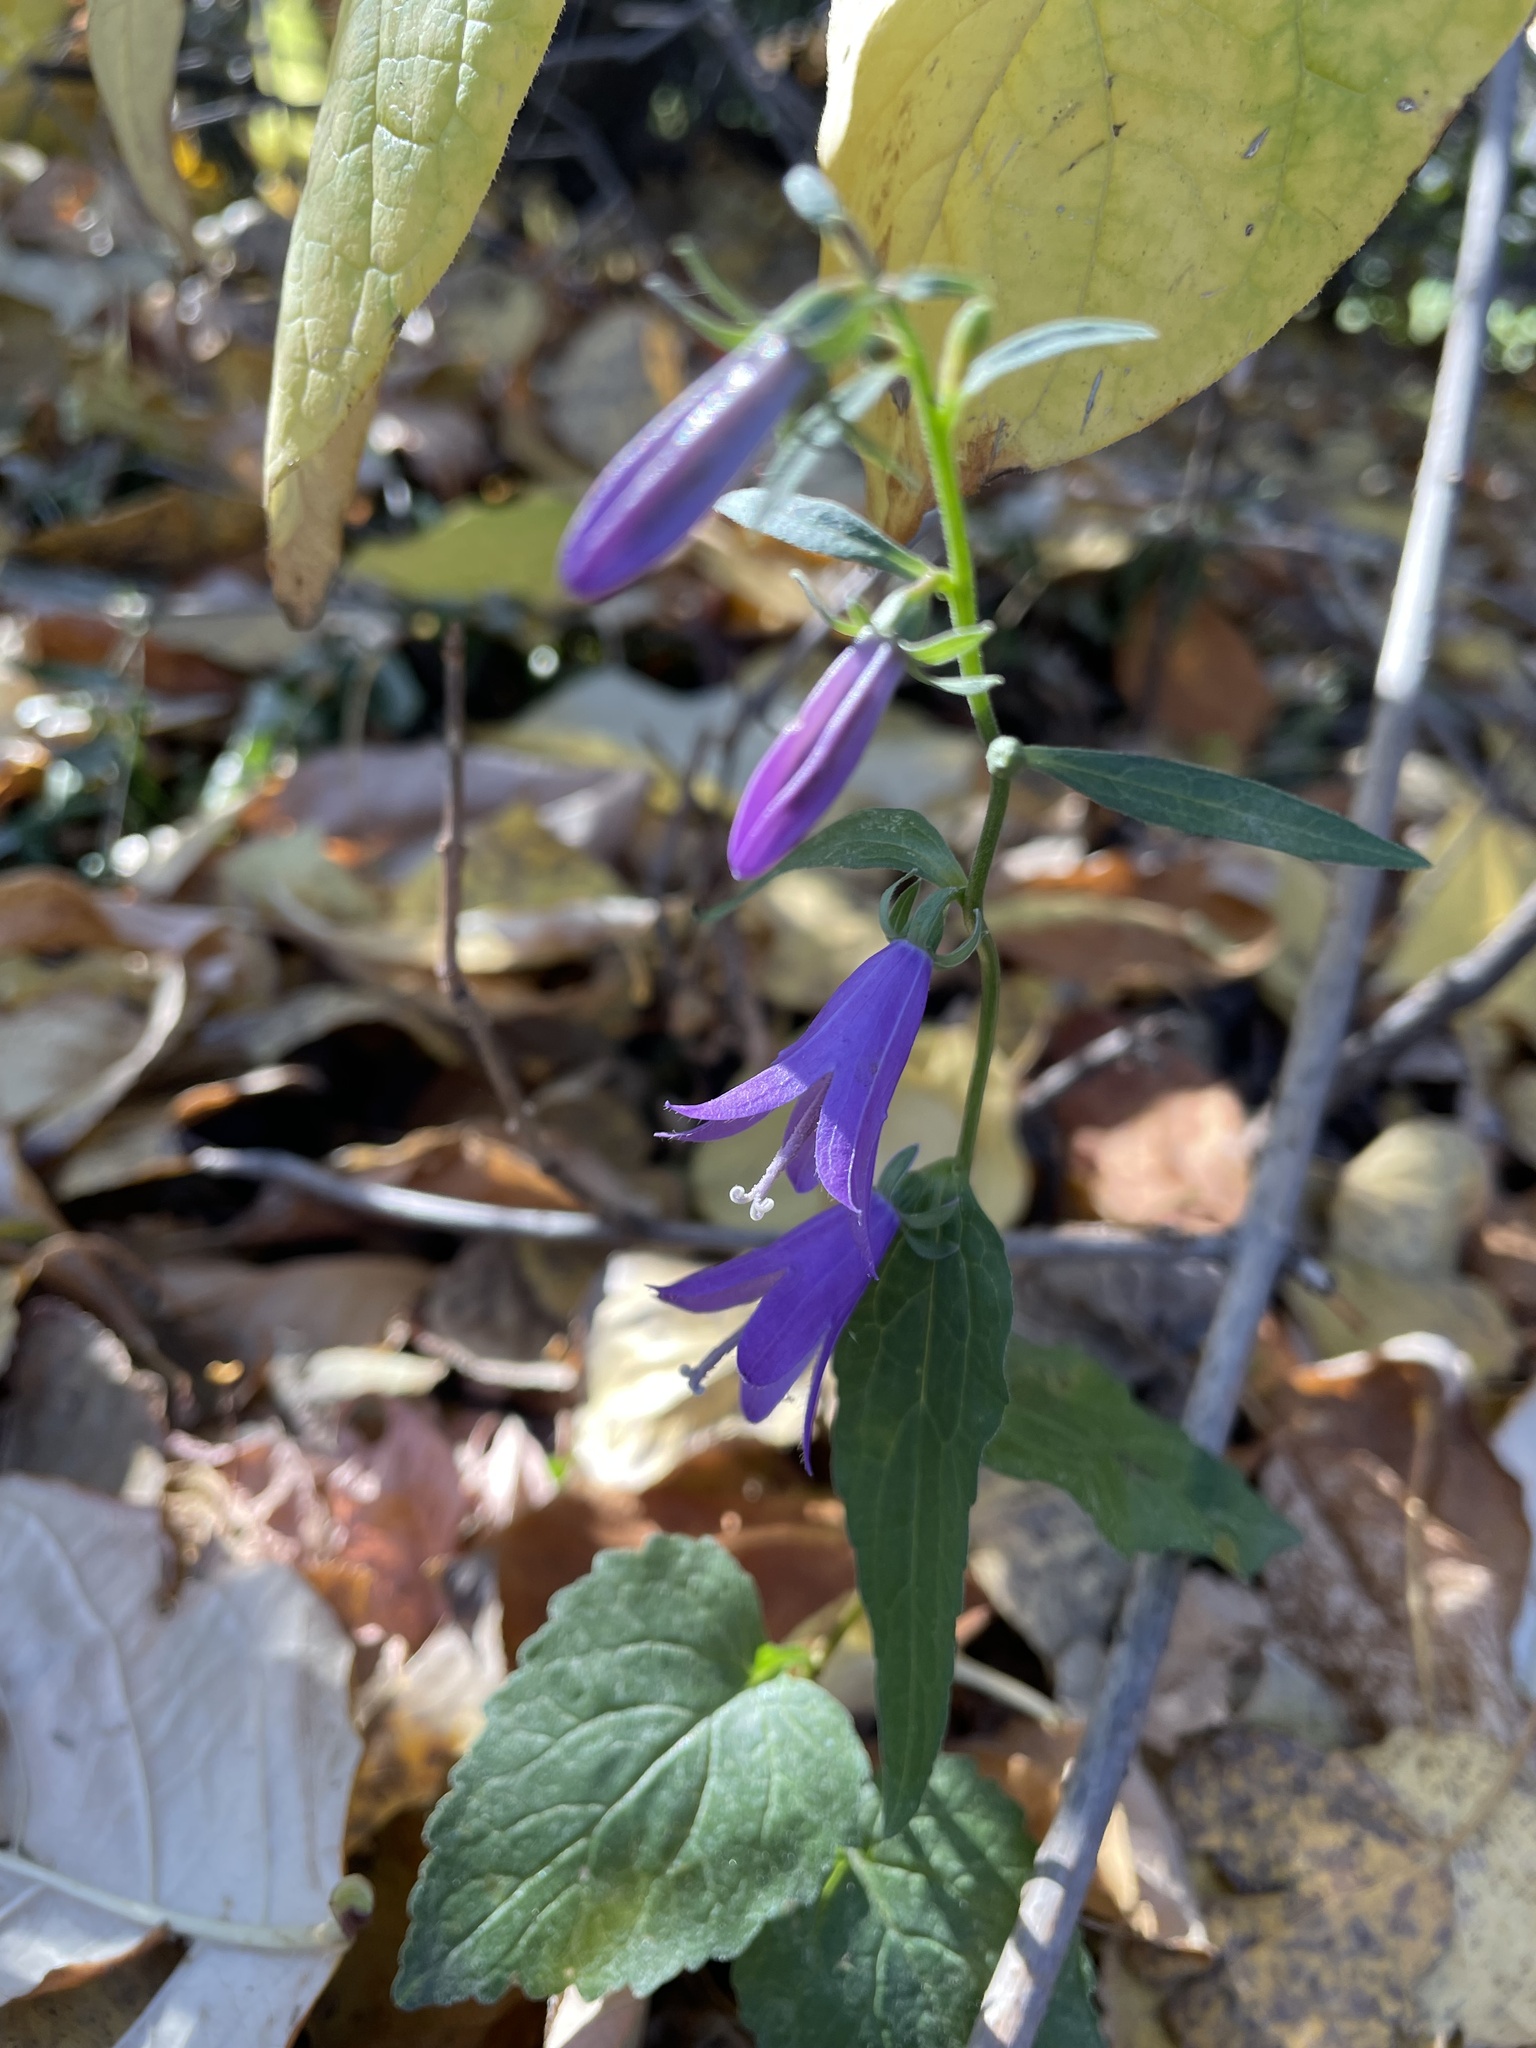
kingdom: Plantae
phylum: Tracheophyta
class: Magnoliopsida
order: Asterales
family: Campanulaceae
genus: Campanula
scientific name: Campanula rapunculoides
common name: Creeping bellflower
